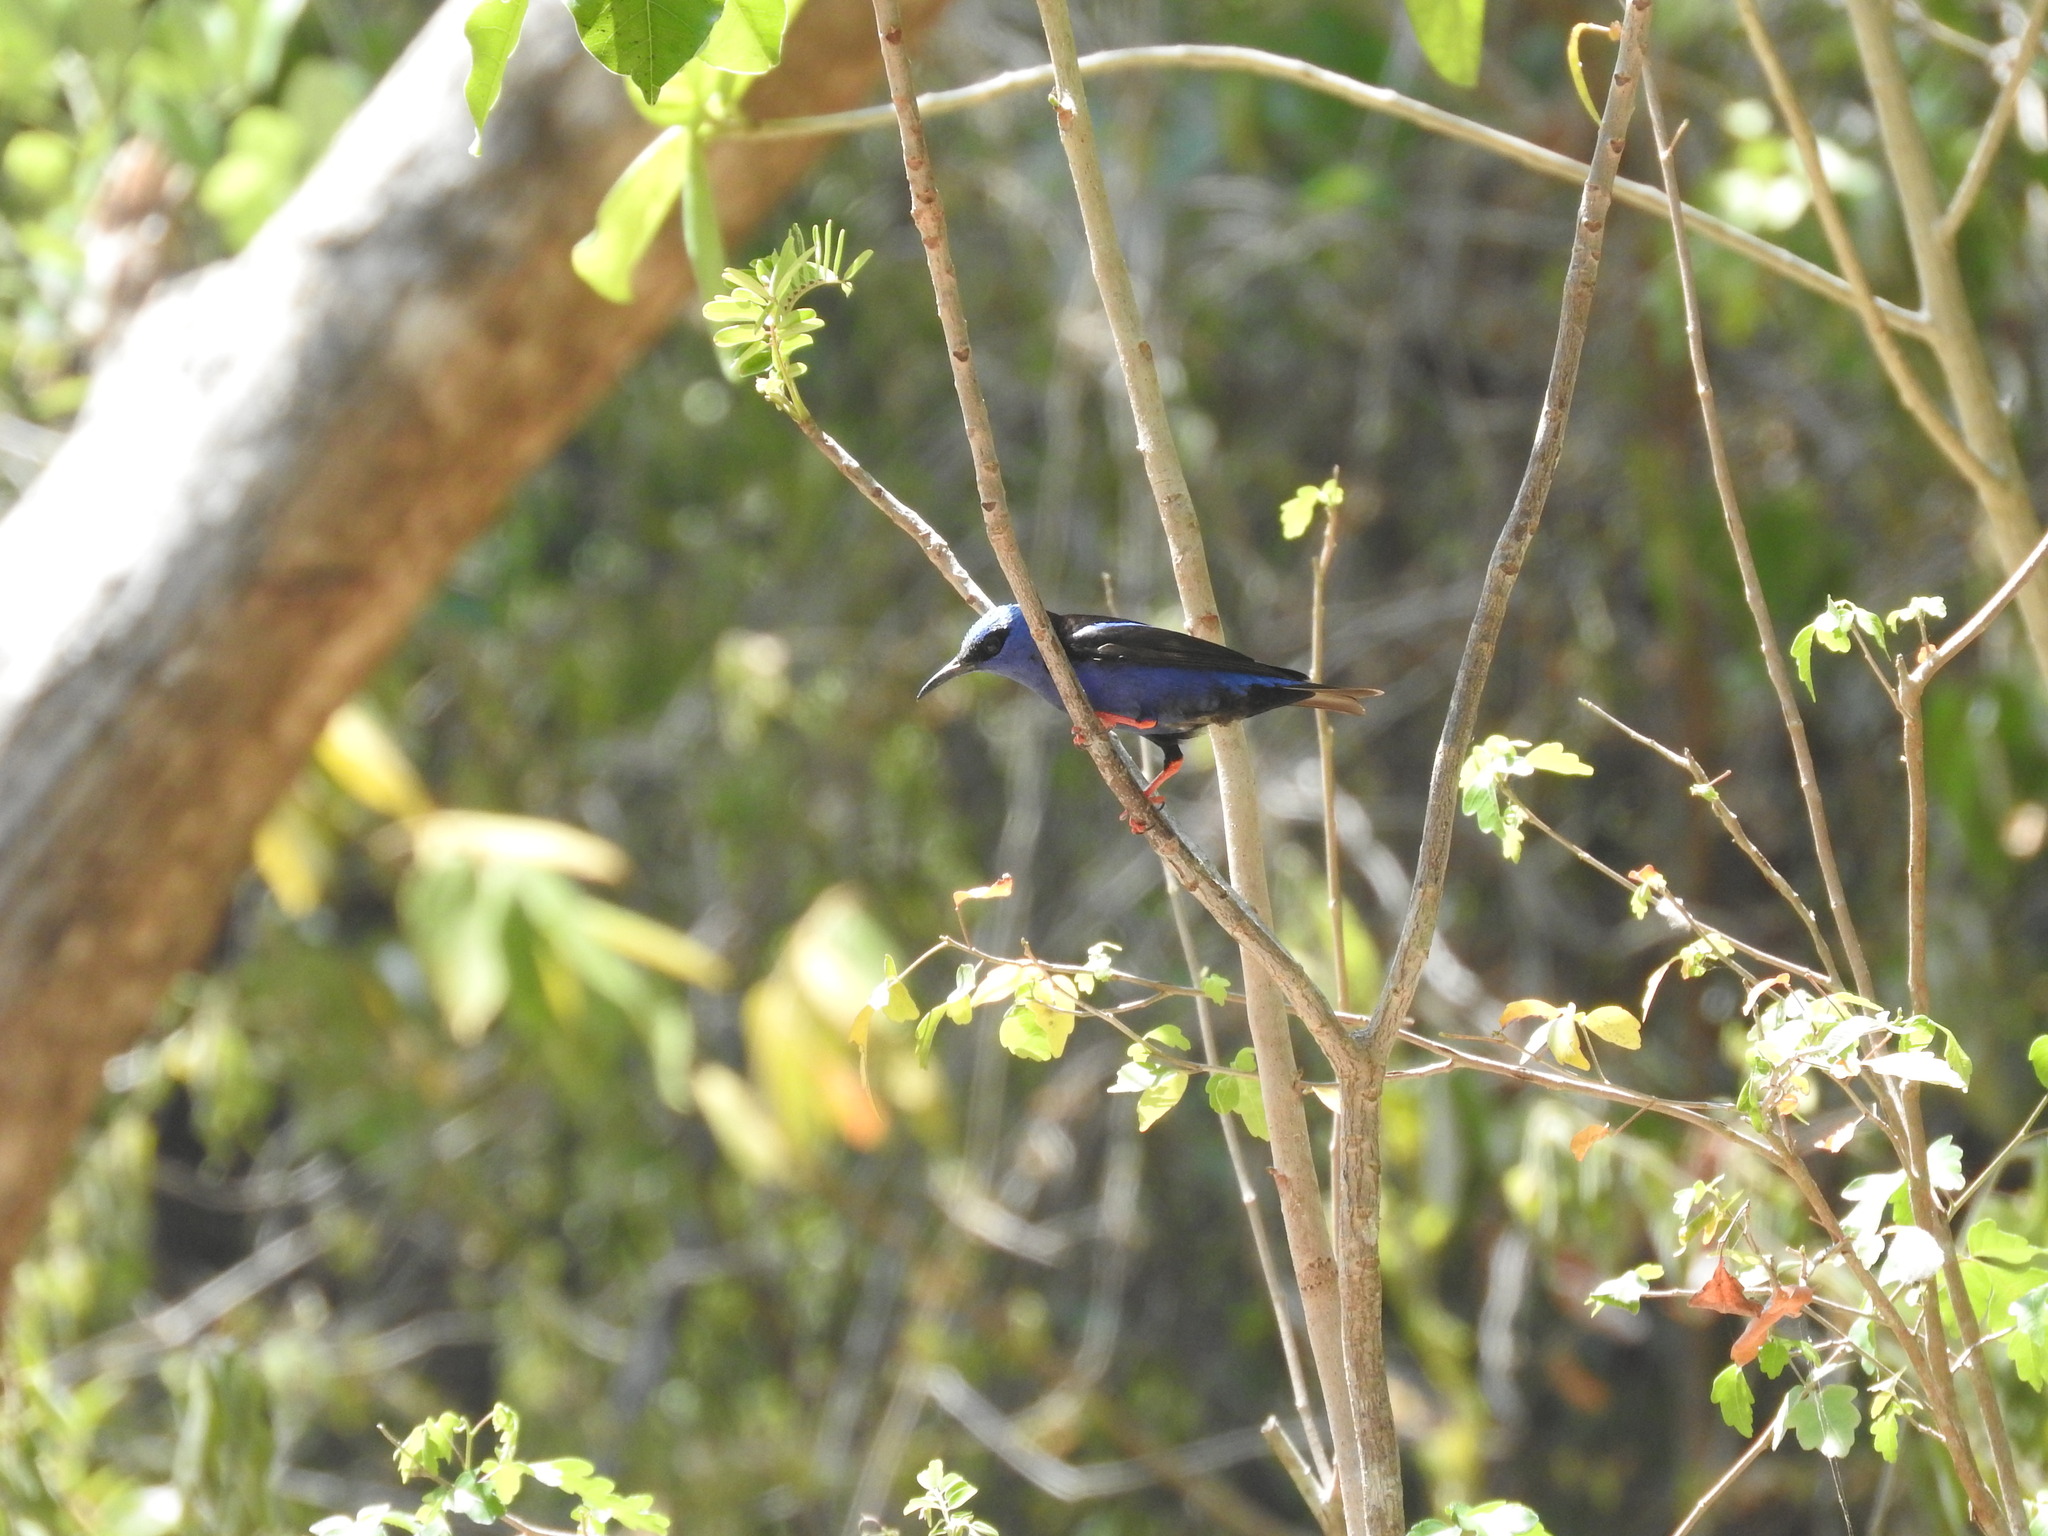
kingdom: Animalia
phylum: Chordata
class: Aves
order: Passeriformes
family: Thraupidae
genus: Cyanerpes
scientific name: Cyanerpes cyaneus
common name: Red-legged honeycreeper
